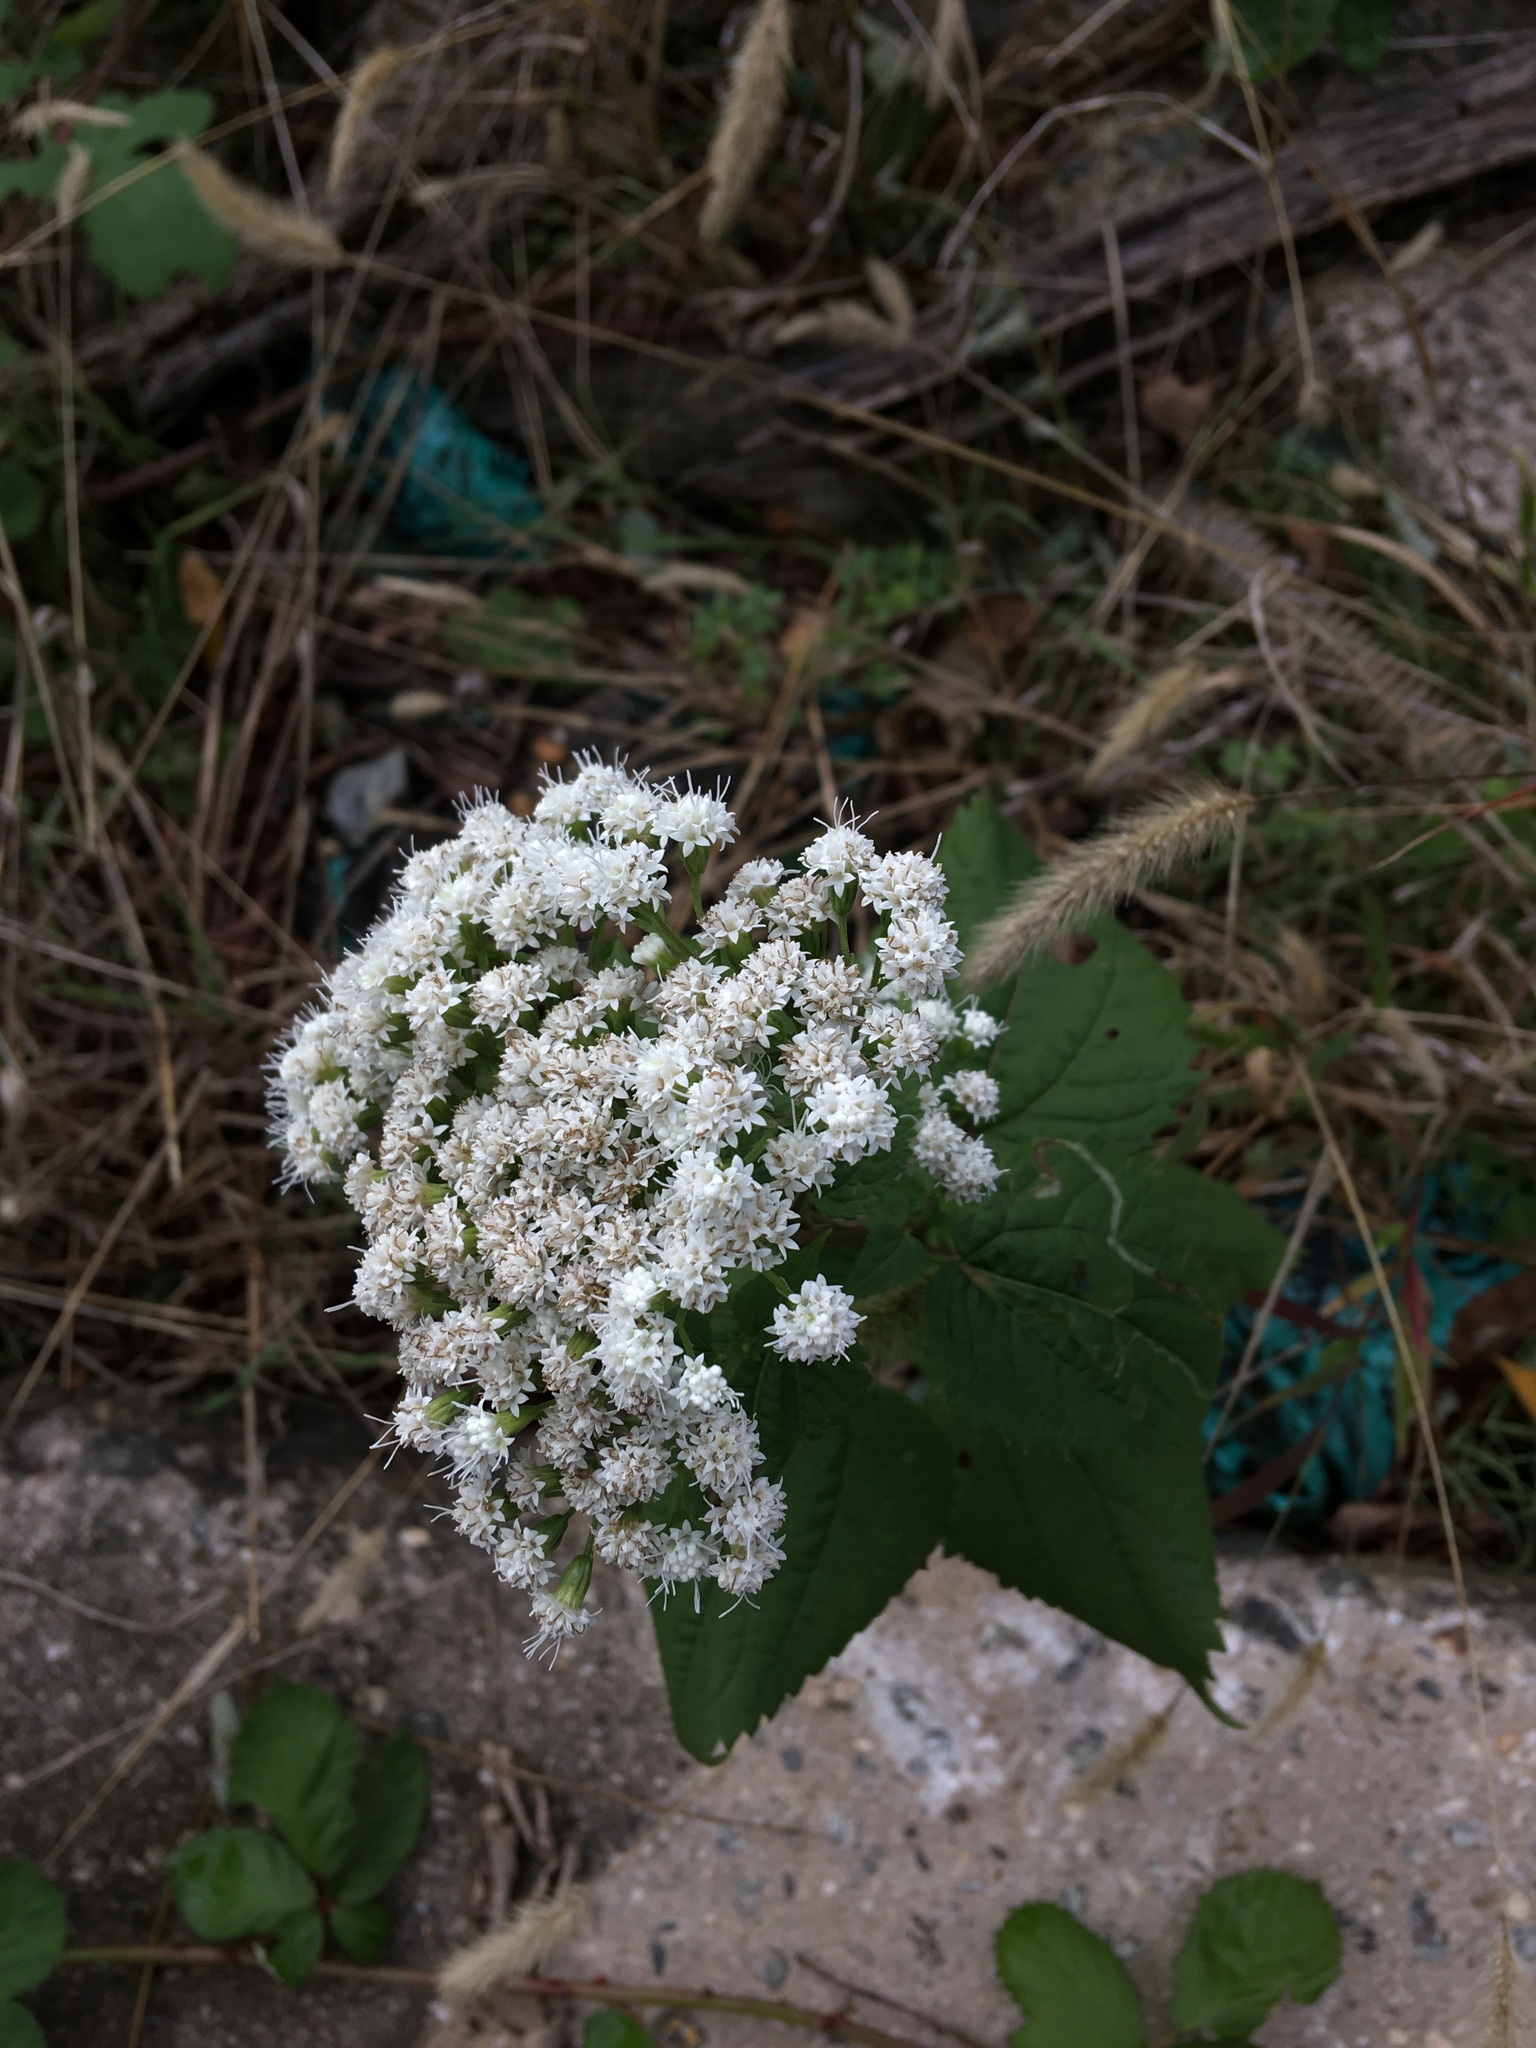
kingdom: Plantae
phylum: Tracheophyta
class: Magnoliopsida
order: Asterales
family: Asteraceae
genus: Ageratina
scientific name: Ageratina altissima
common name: White snakeroot
